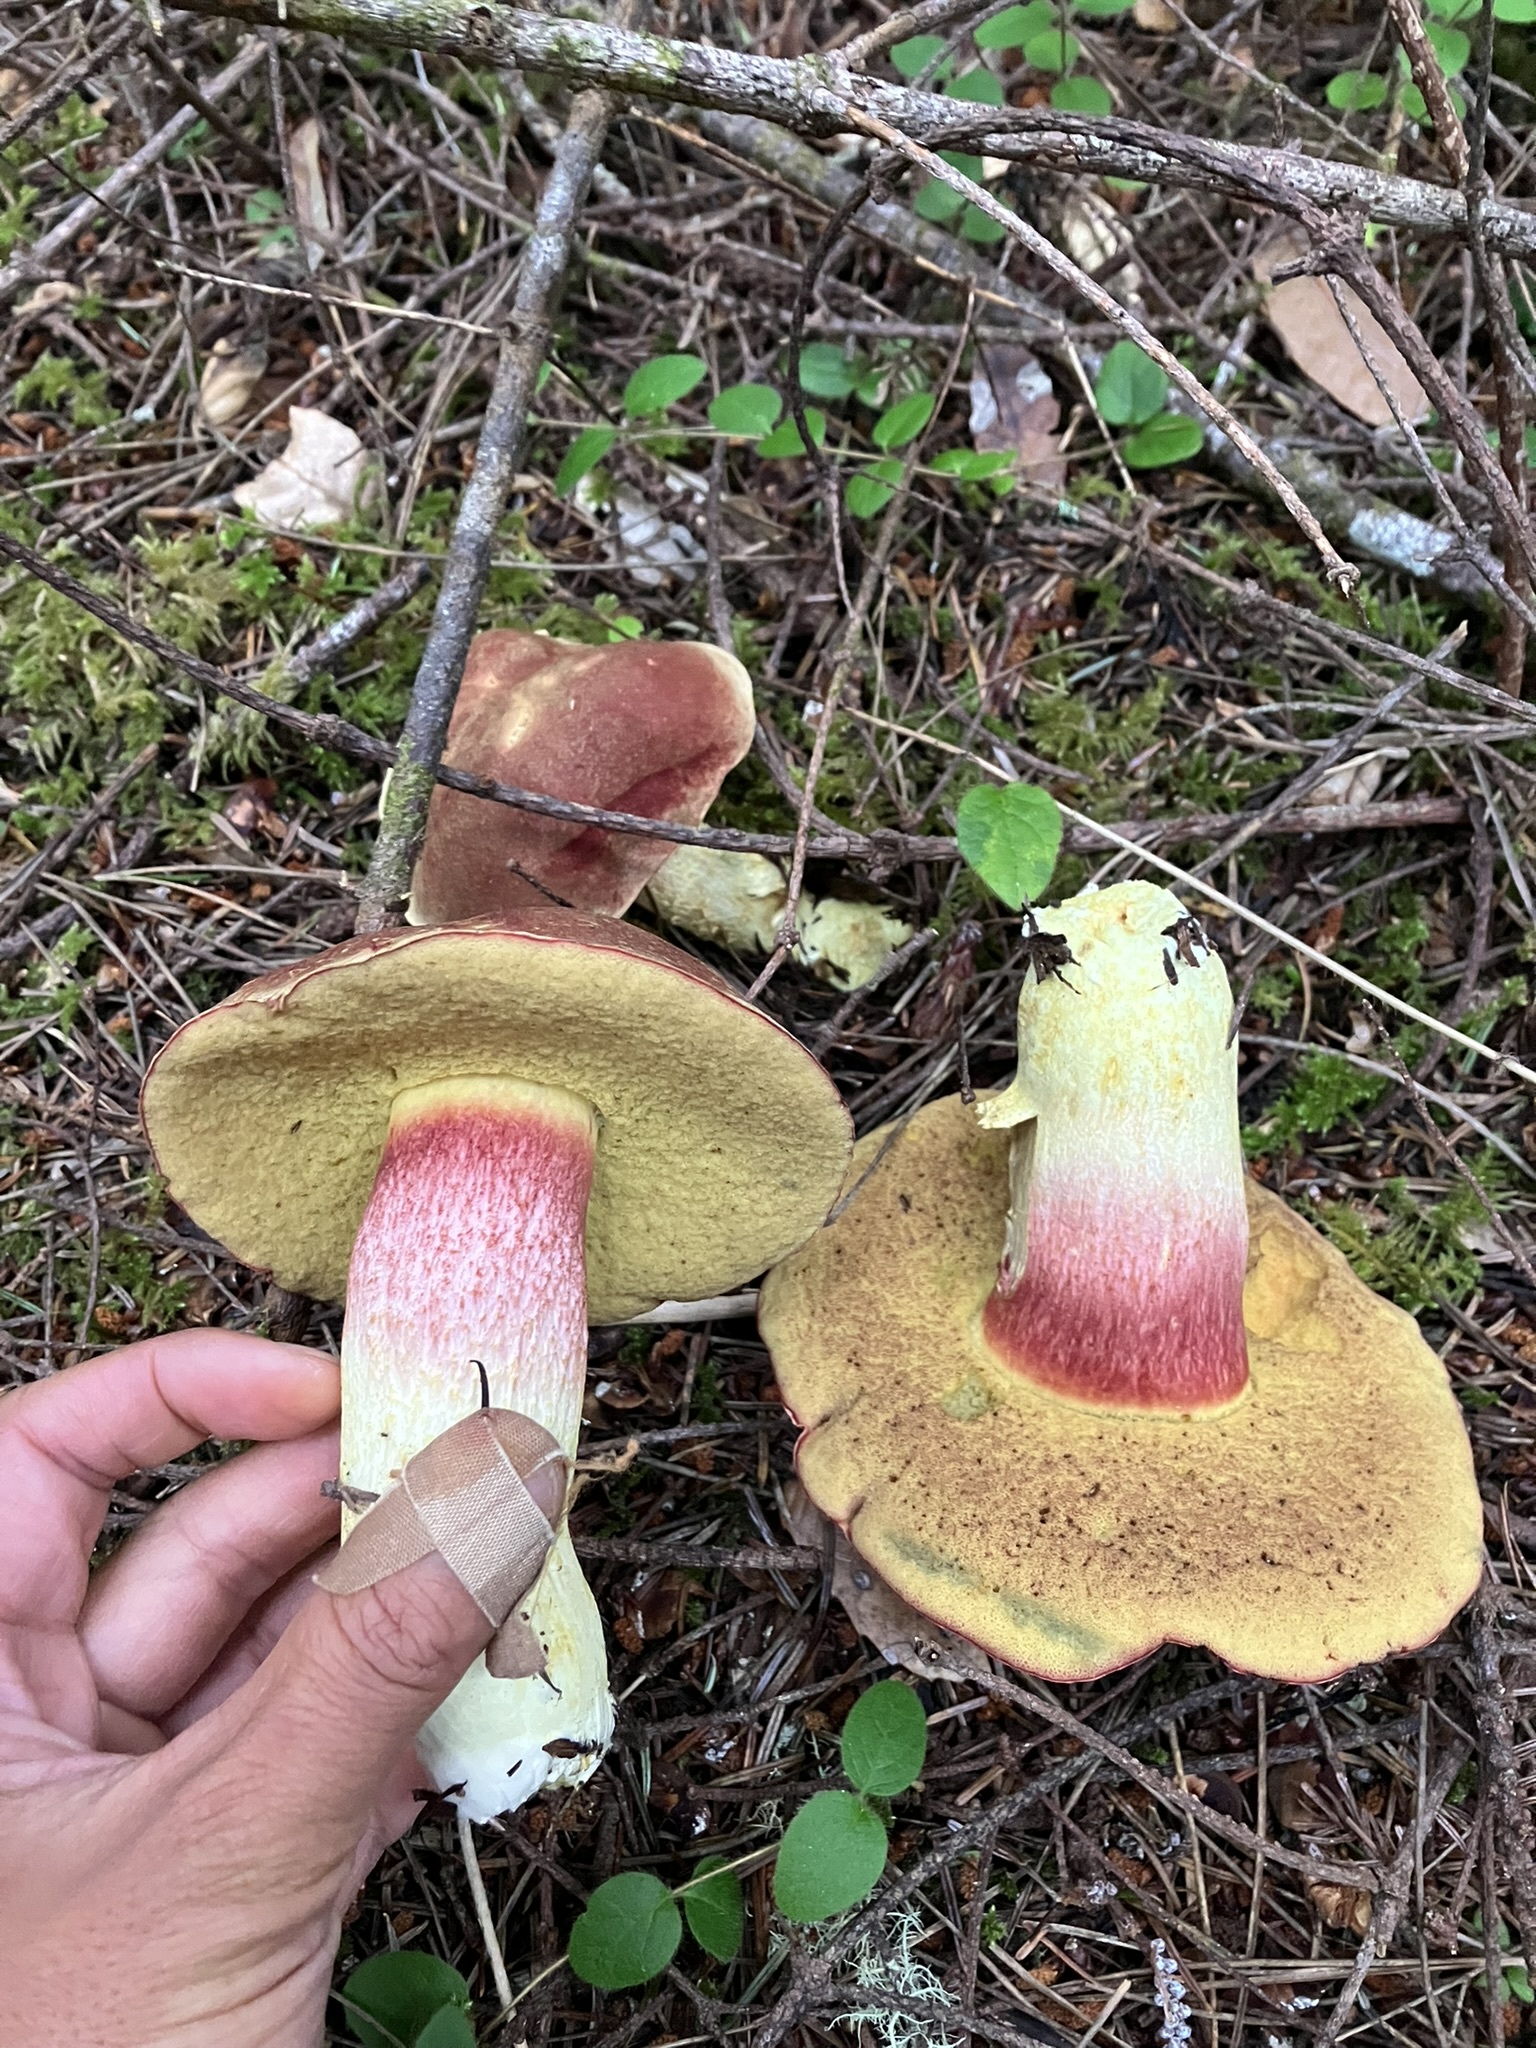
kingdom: Fungi
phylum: Basidiomycota
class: Agaricomycetes
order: Boletales
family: Boletaceae
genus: Boletus
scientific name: Boletus smithii
